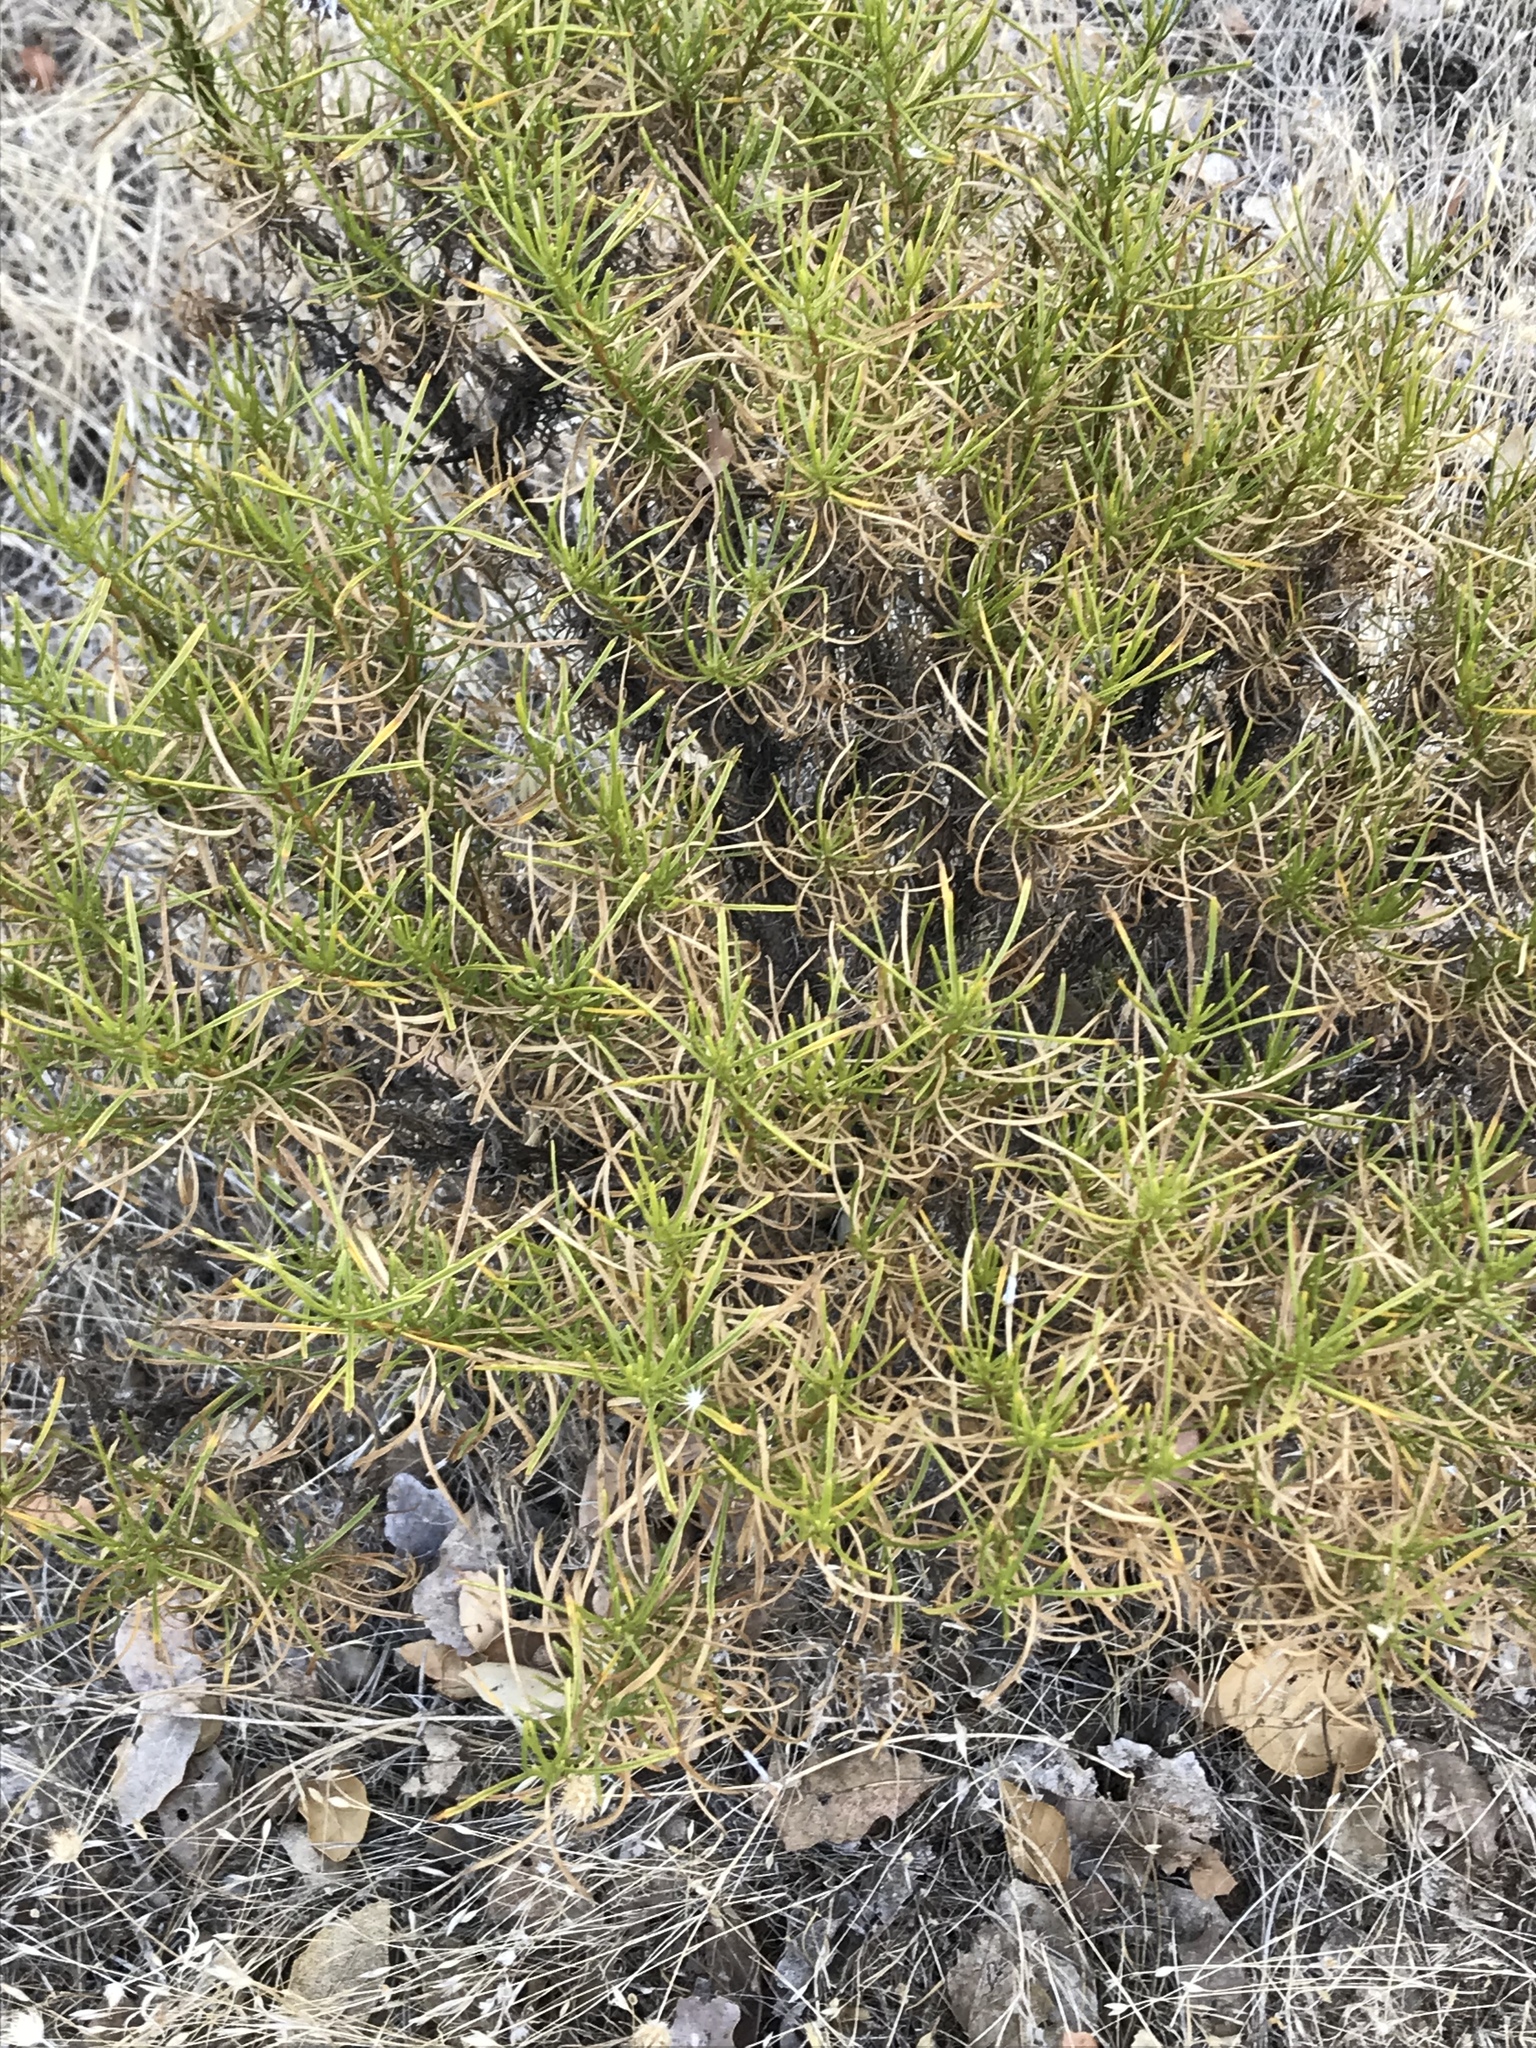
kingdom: Plantae
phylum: Tracheophyta
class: Magnoliopsida
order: Asterales
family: Asteraceae
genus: Ericameria
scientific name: Ericameria linearifolia
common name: Interior goldenbush
